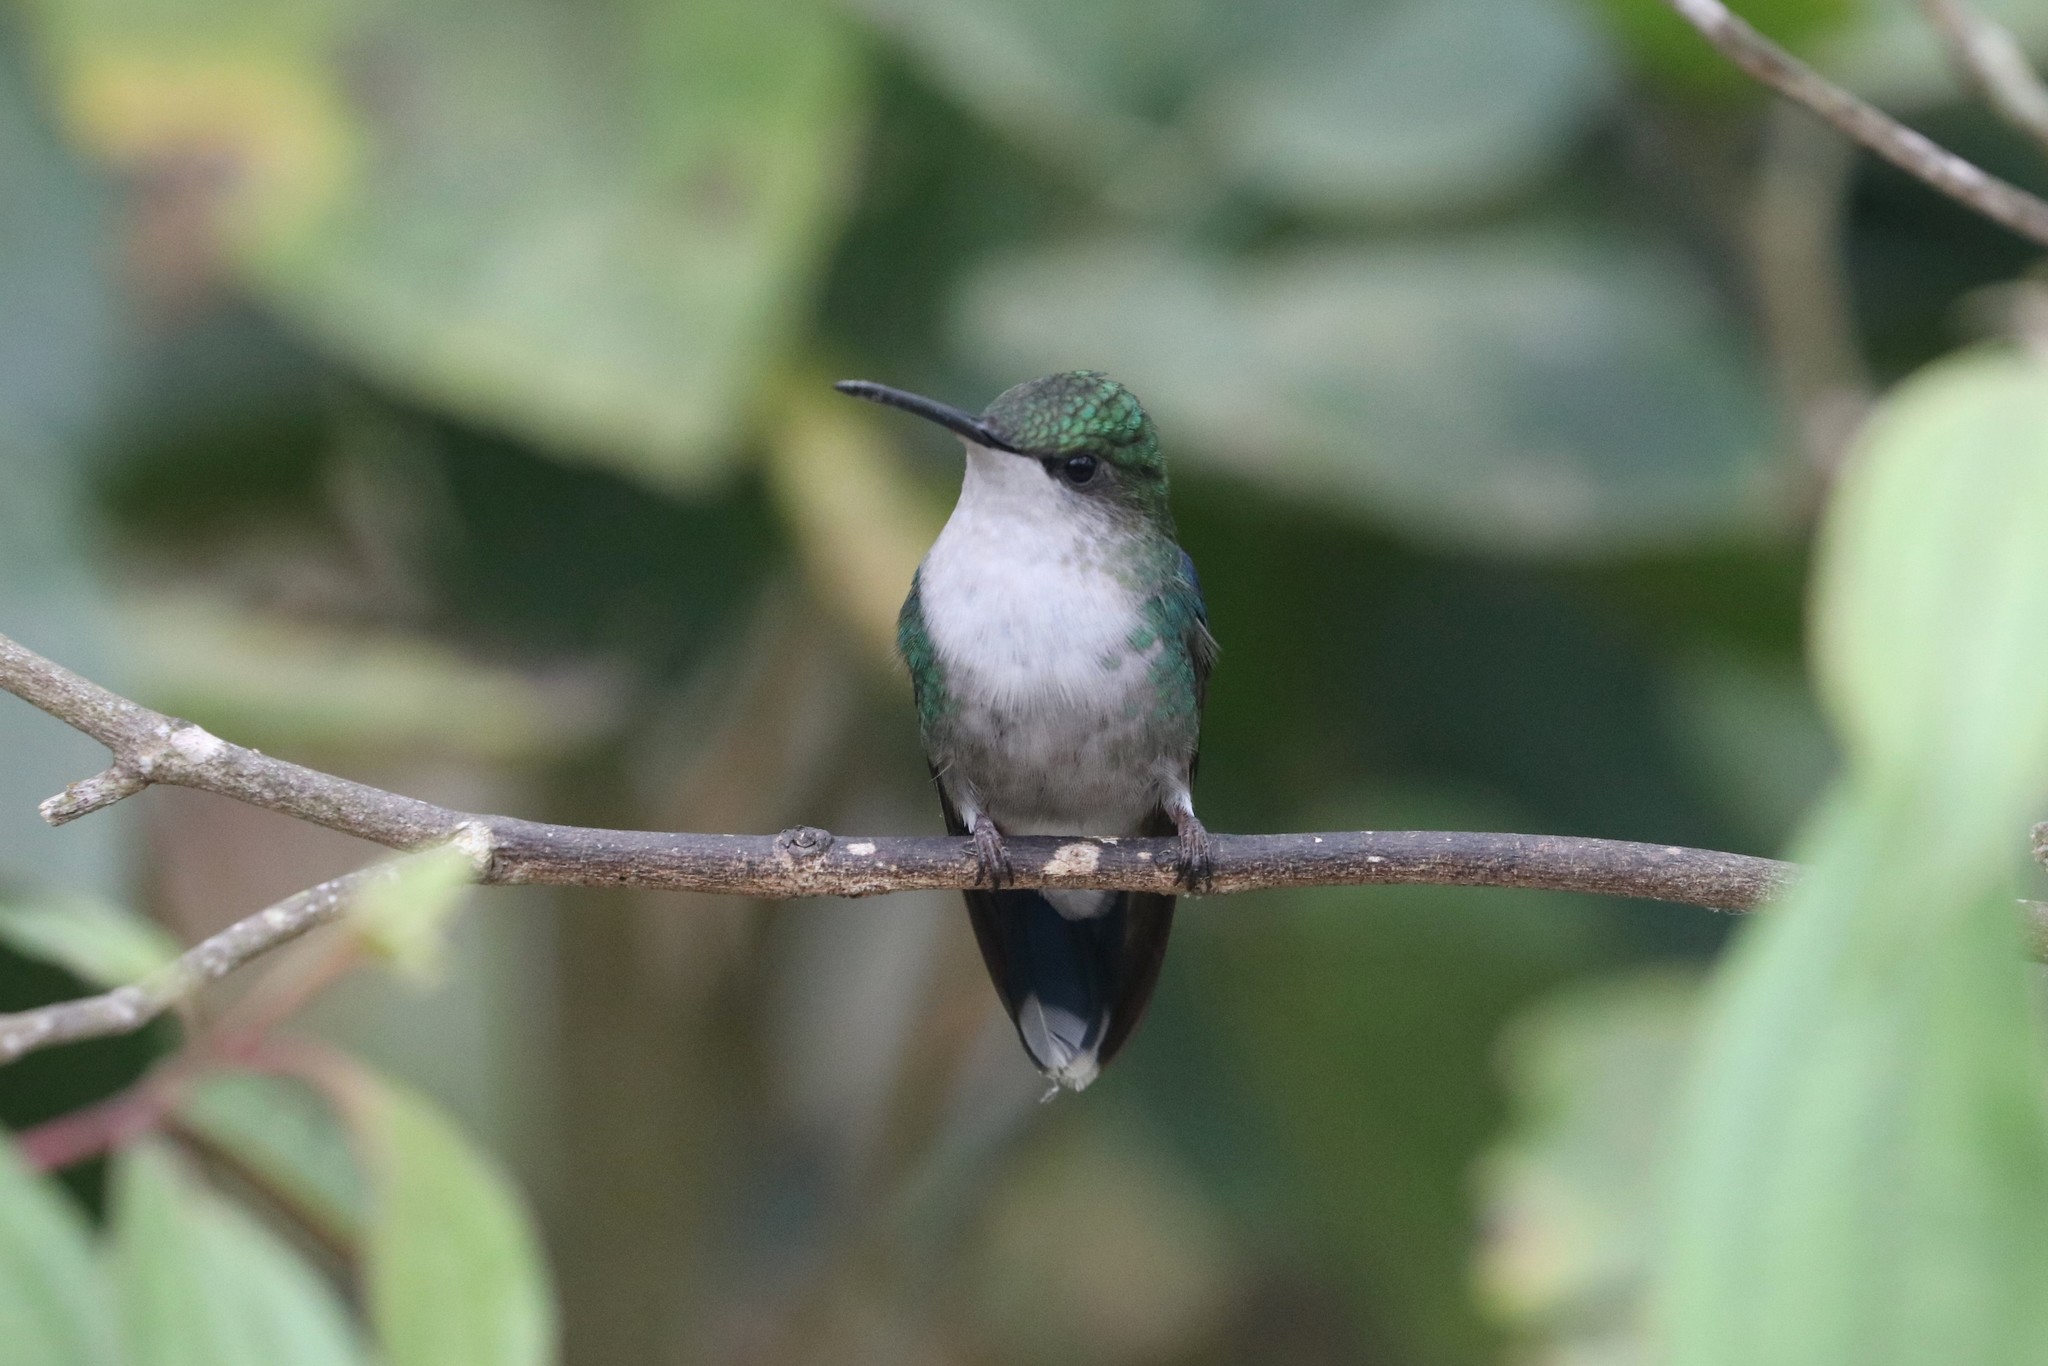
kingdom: Animalia
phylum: Chordata
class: Aves
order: Apodiformes
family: Trochilidae
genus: Thalurania
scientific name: Thalurania colombica
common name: Crowned woodnymph
